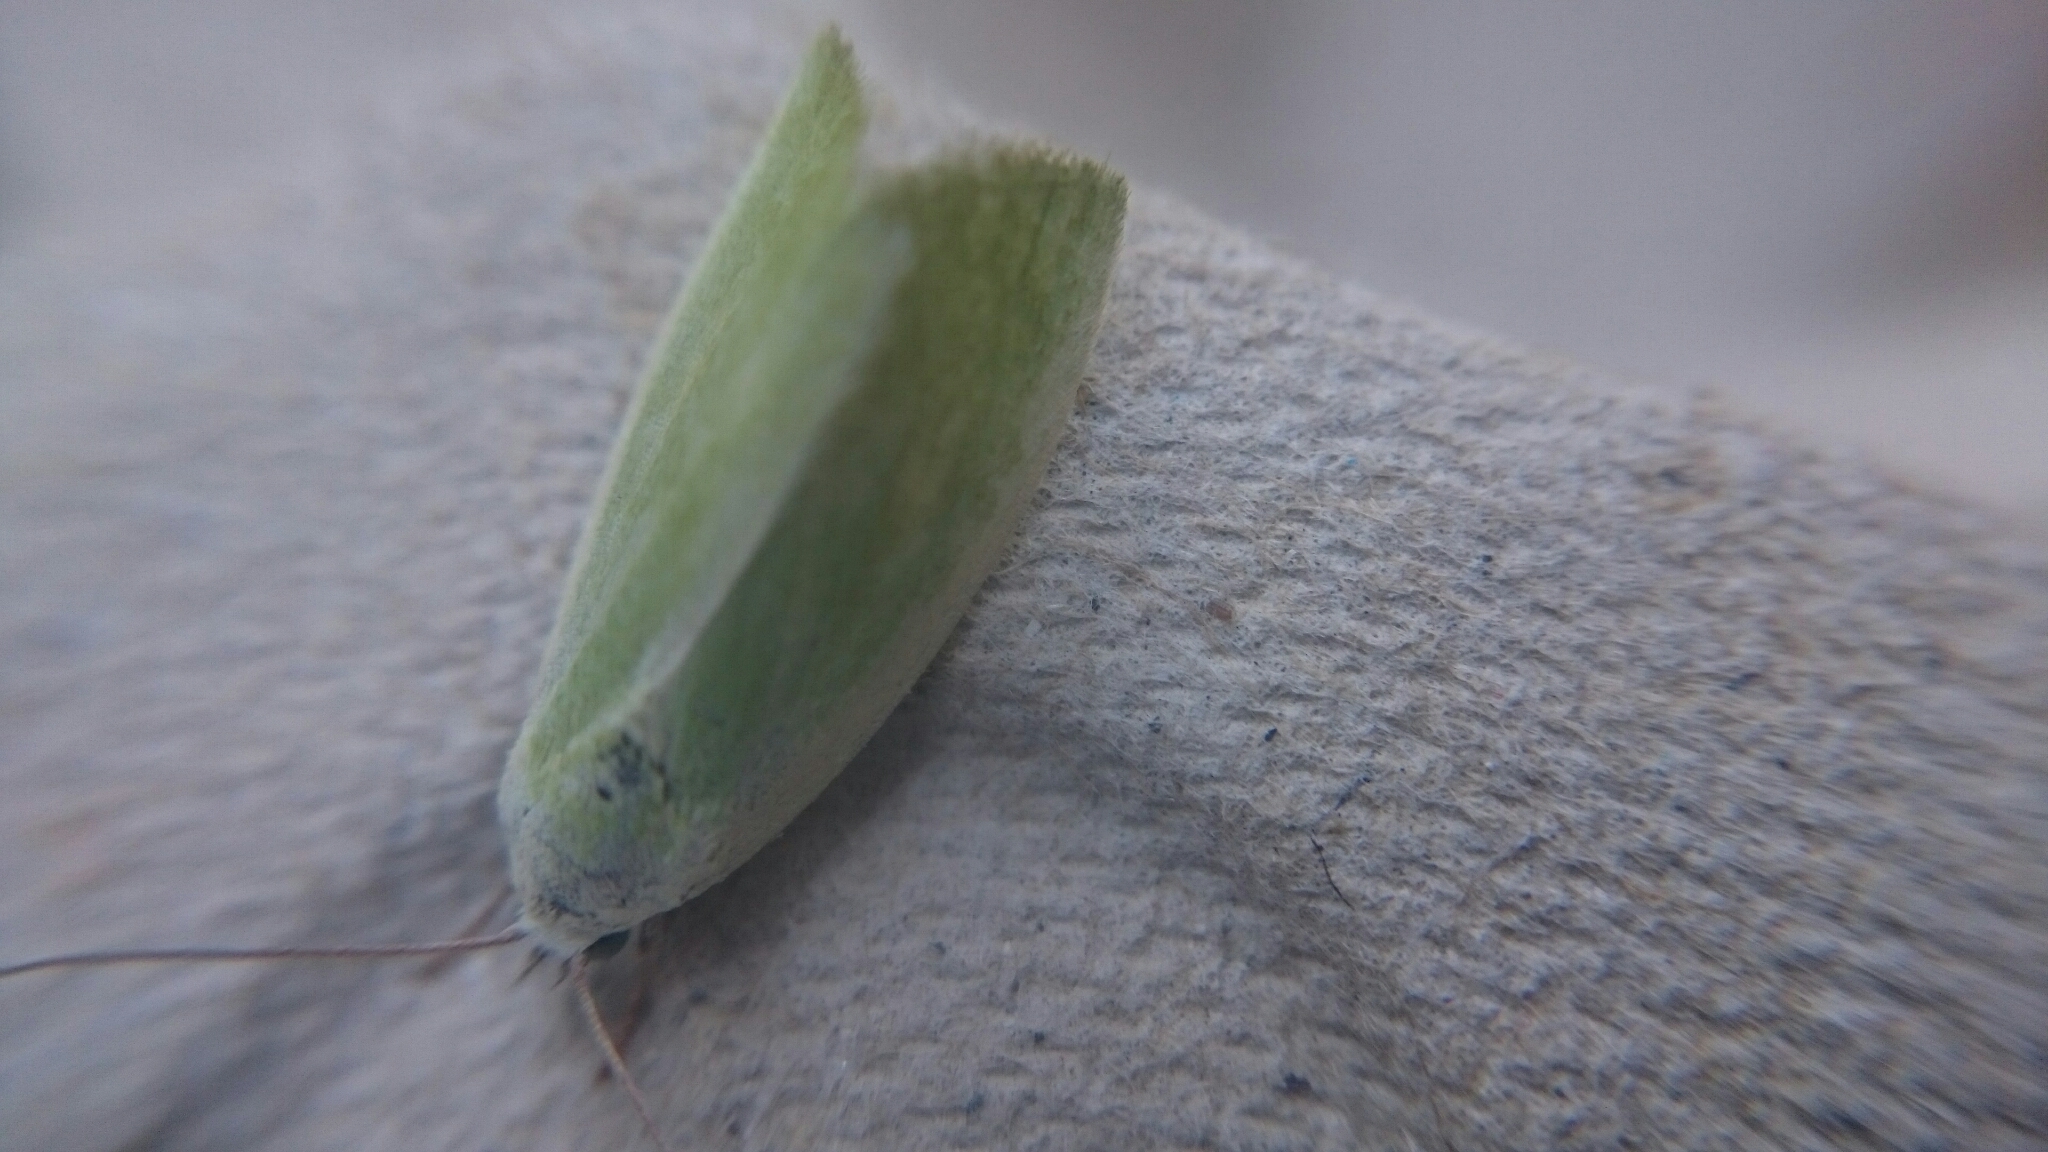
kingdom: Animalia
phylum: Arthropoda
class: Insecta
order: Lepidoptera
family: Nolidae
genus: Earias
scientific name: Earias clorana
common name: Cream-bordered green pea
